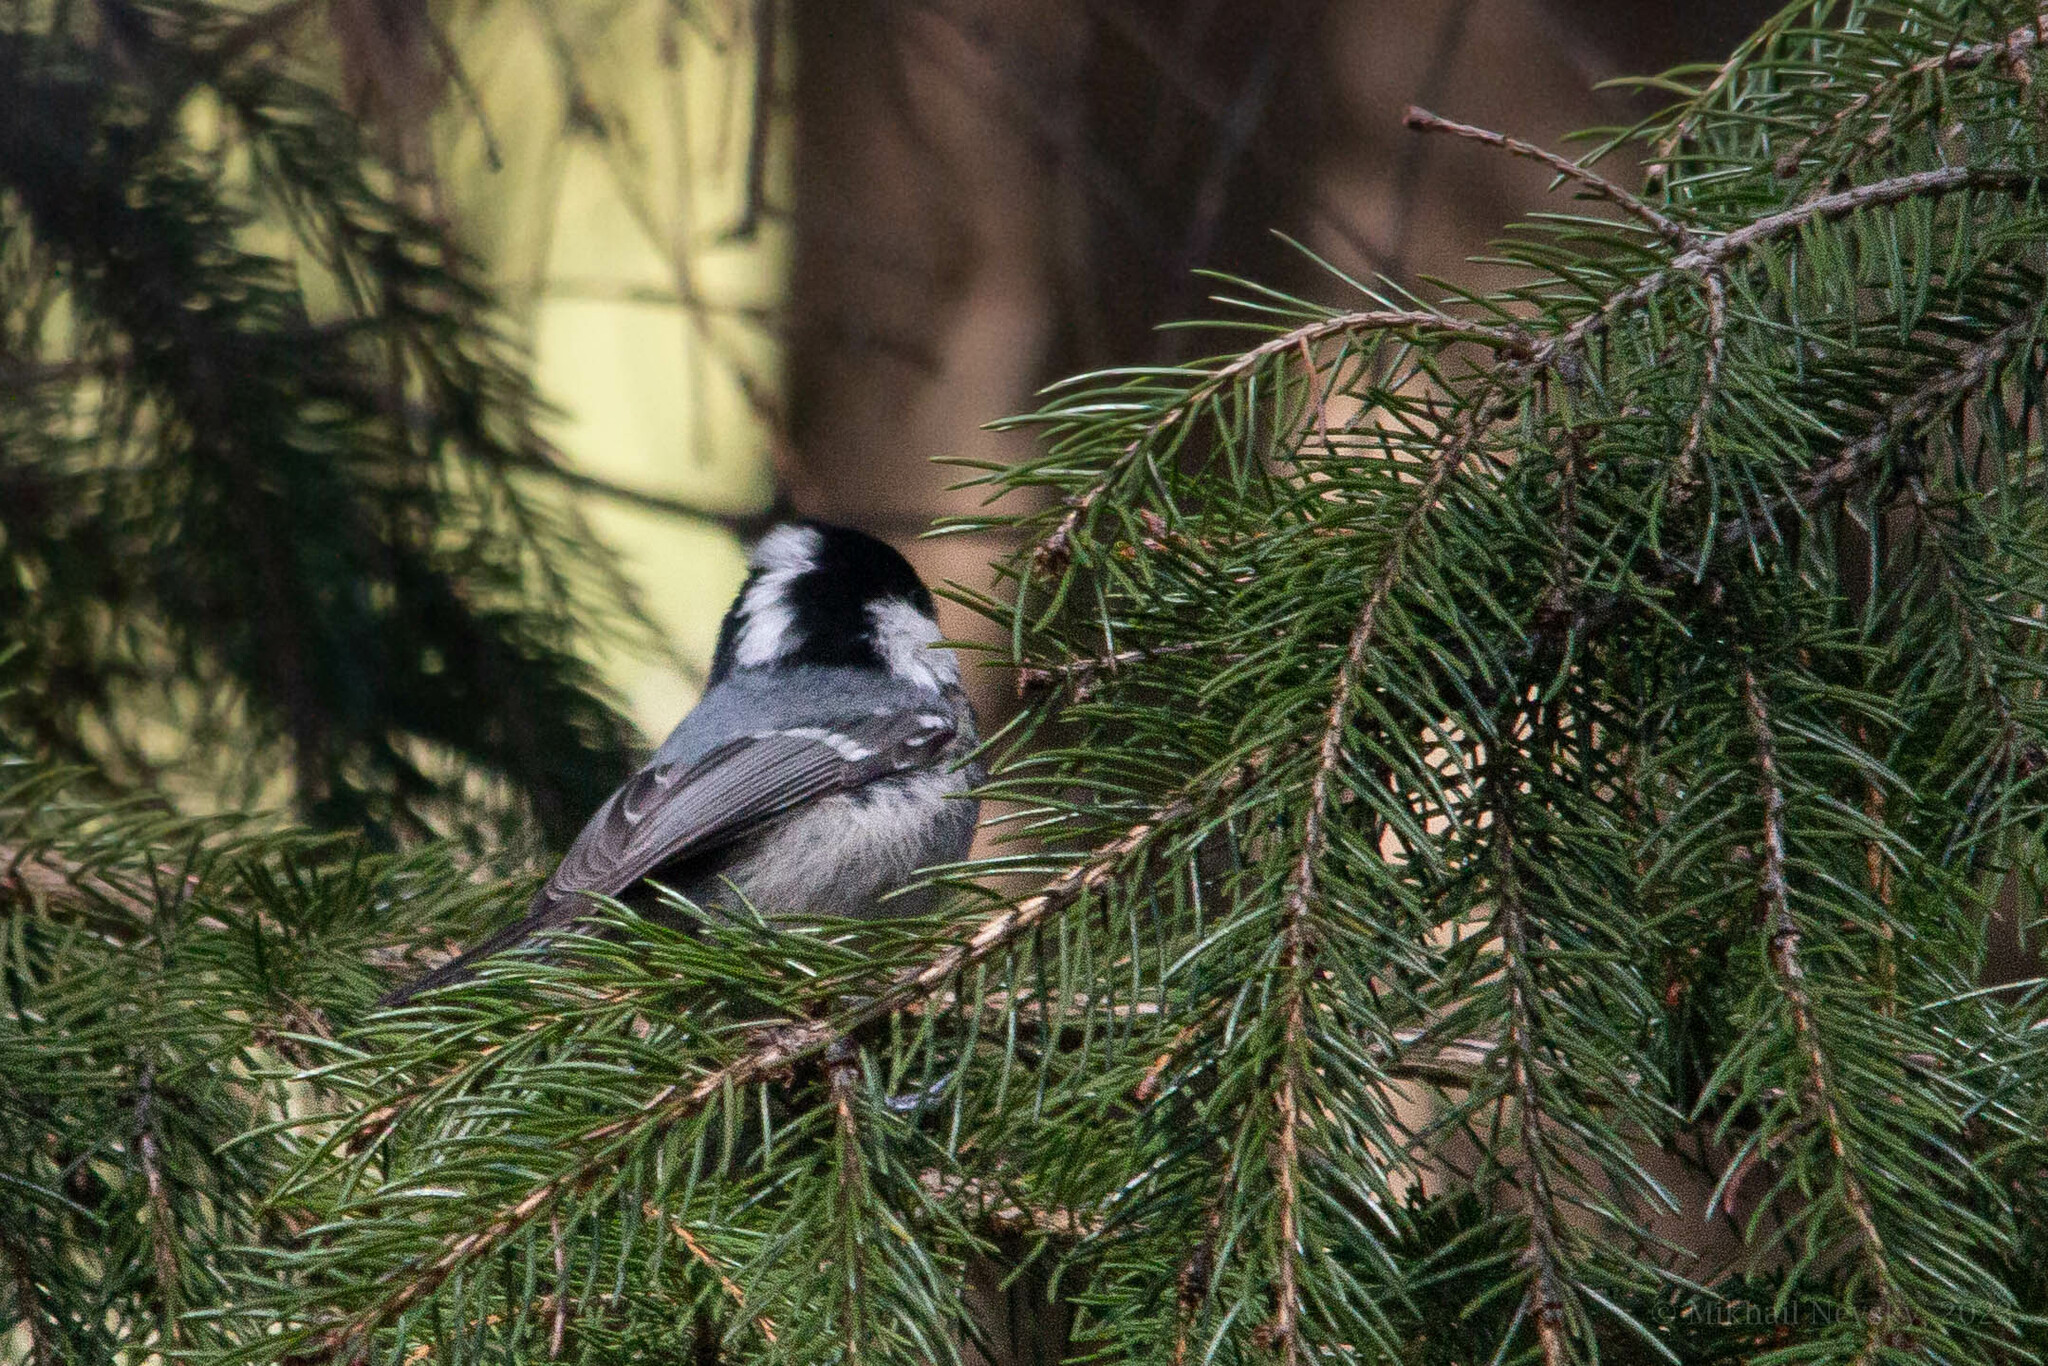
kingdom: Animalia
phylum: Chordata
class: Aves
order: Passeriformes
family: Paridae
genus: Periparus
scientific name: Periparus ater
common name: Coal tit
